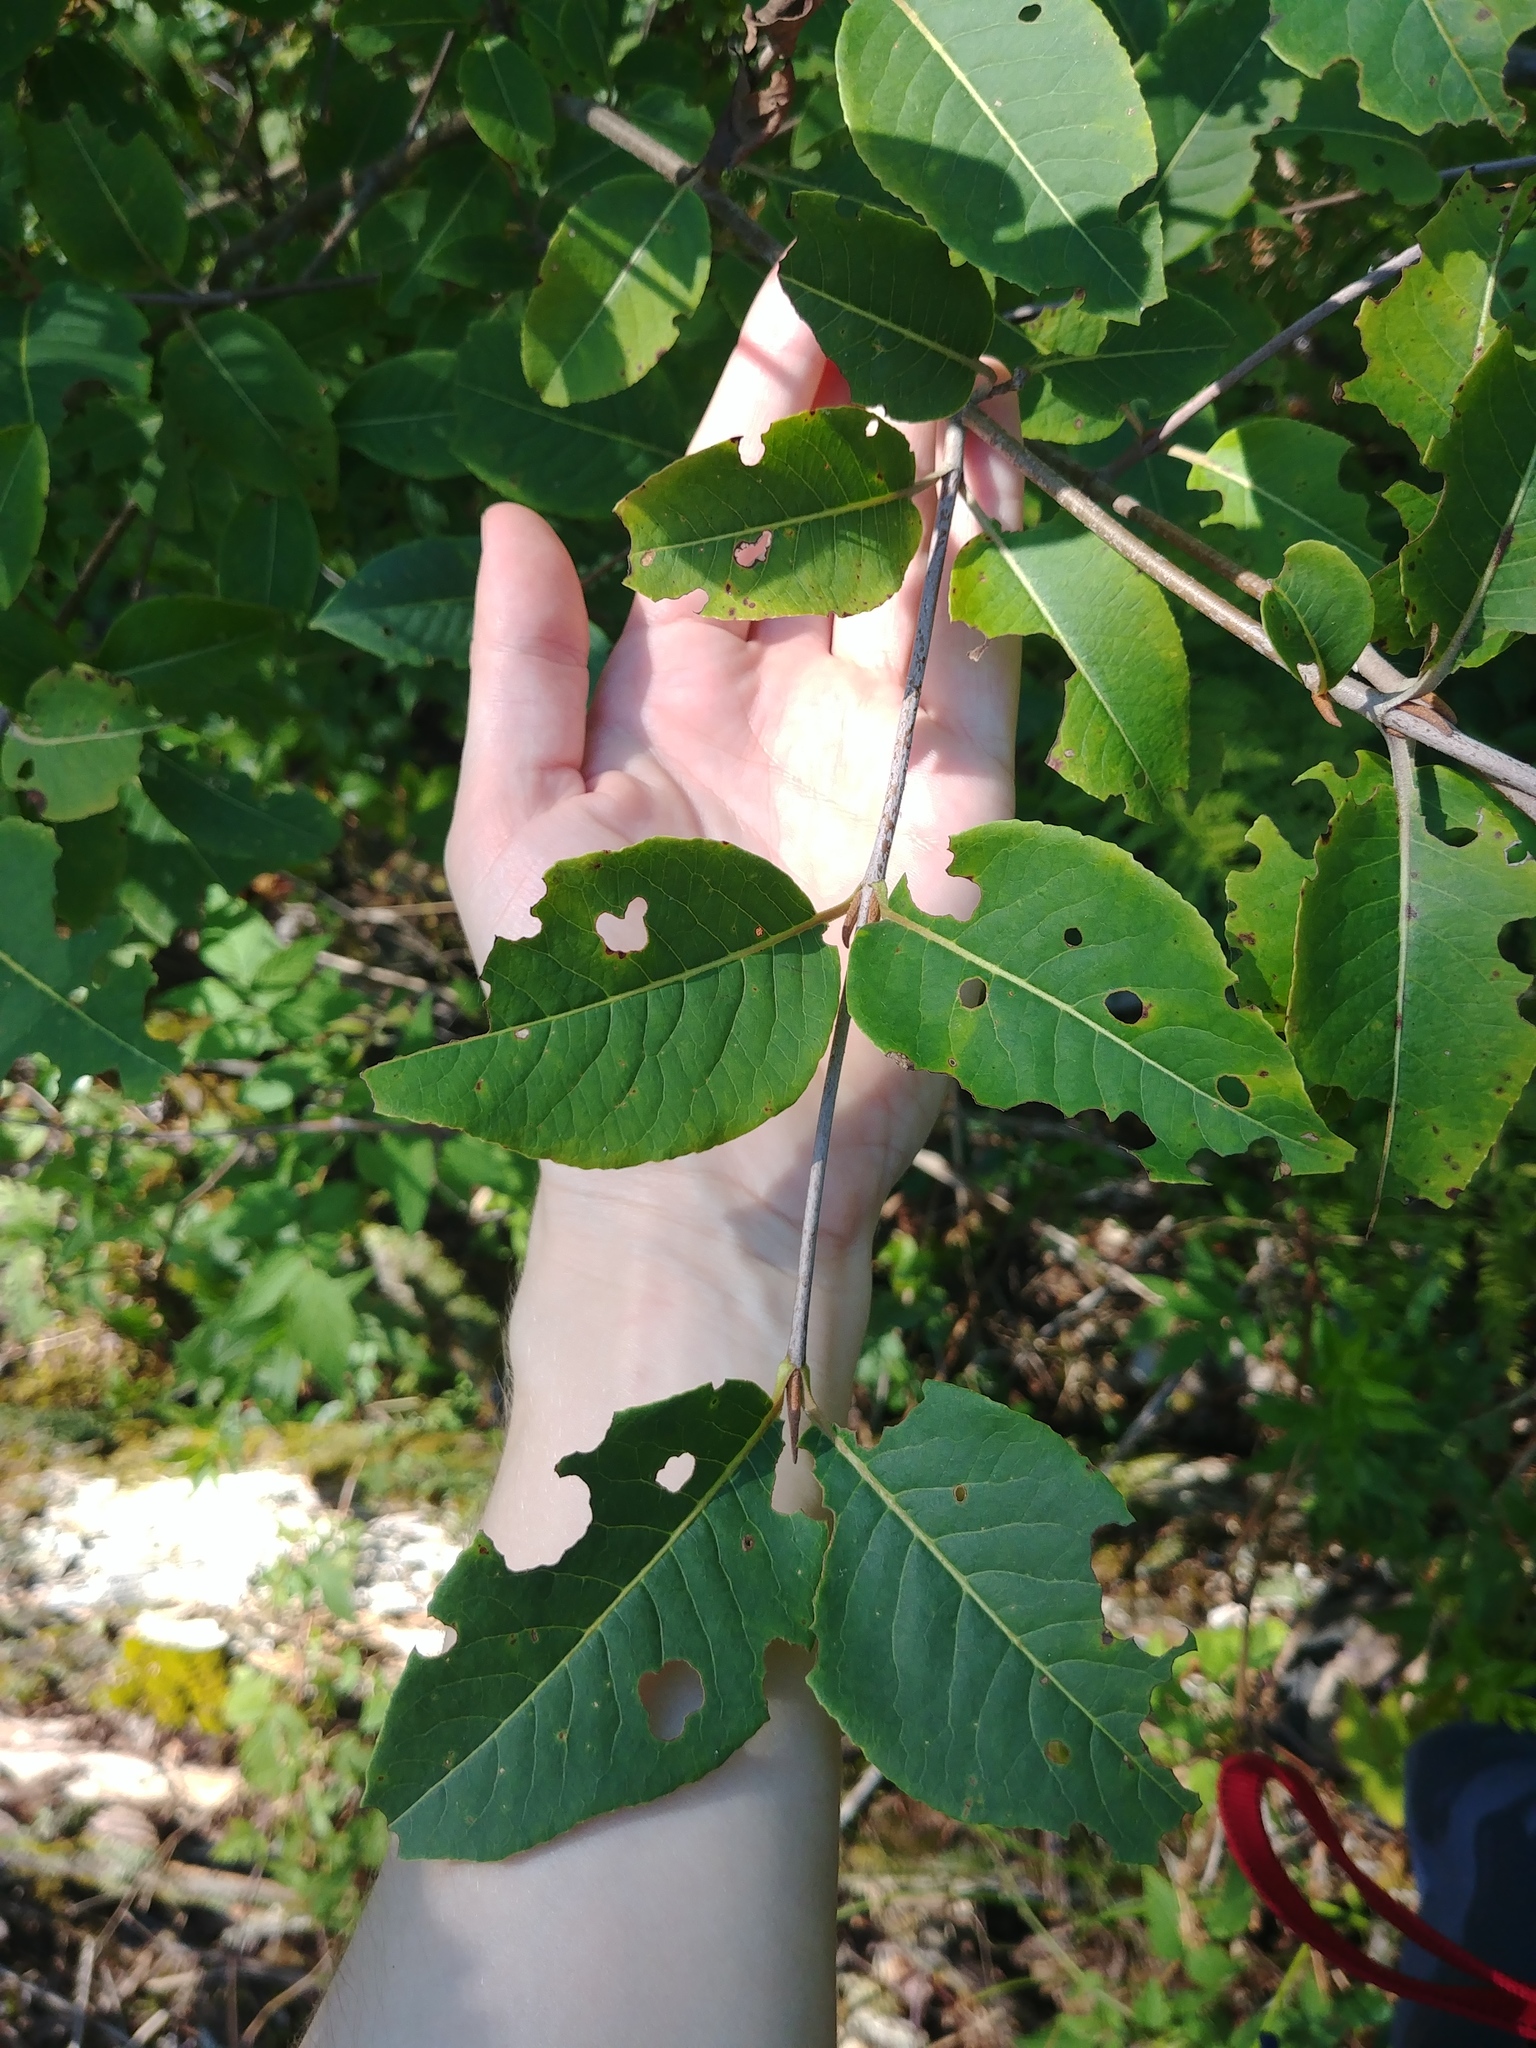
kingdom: Plantae
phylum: Tracheophyta
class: Magnoliopsida
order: Dipsacales
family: Viburnaceae
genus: Viburnum
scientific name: Viburnum cassinoides
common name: Swamp haw
